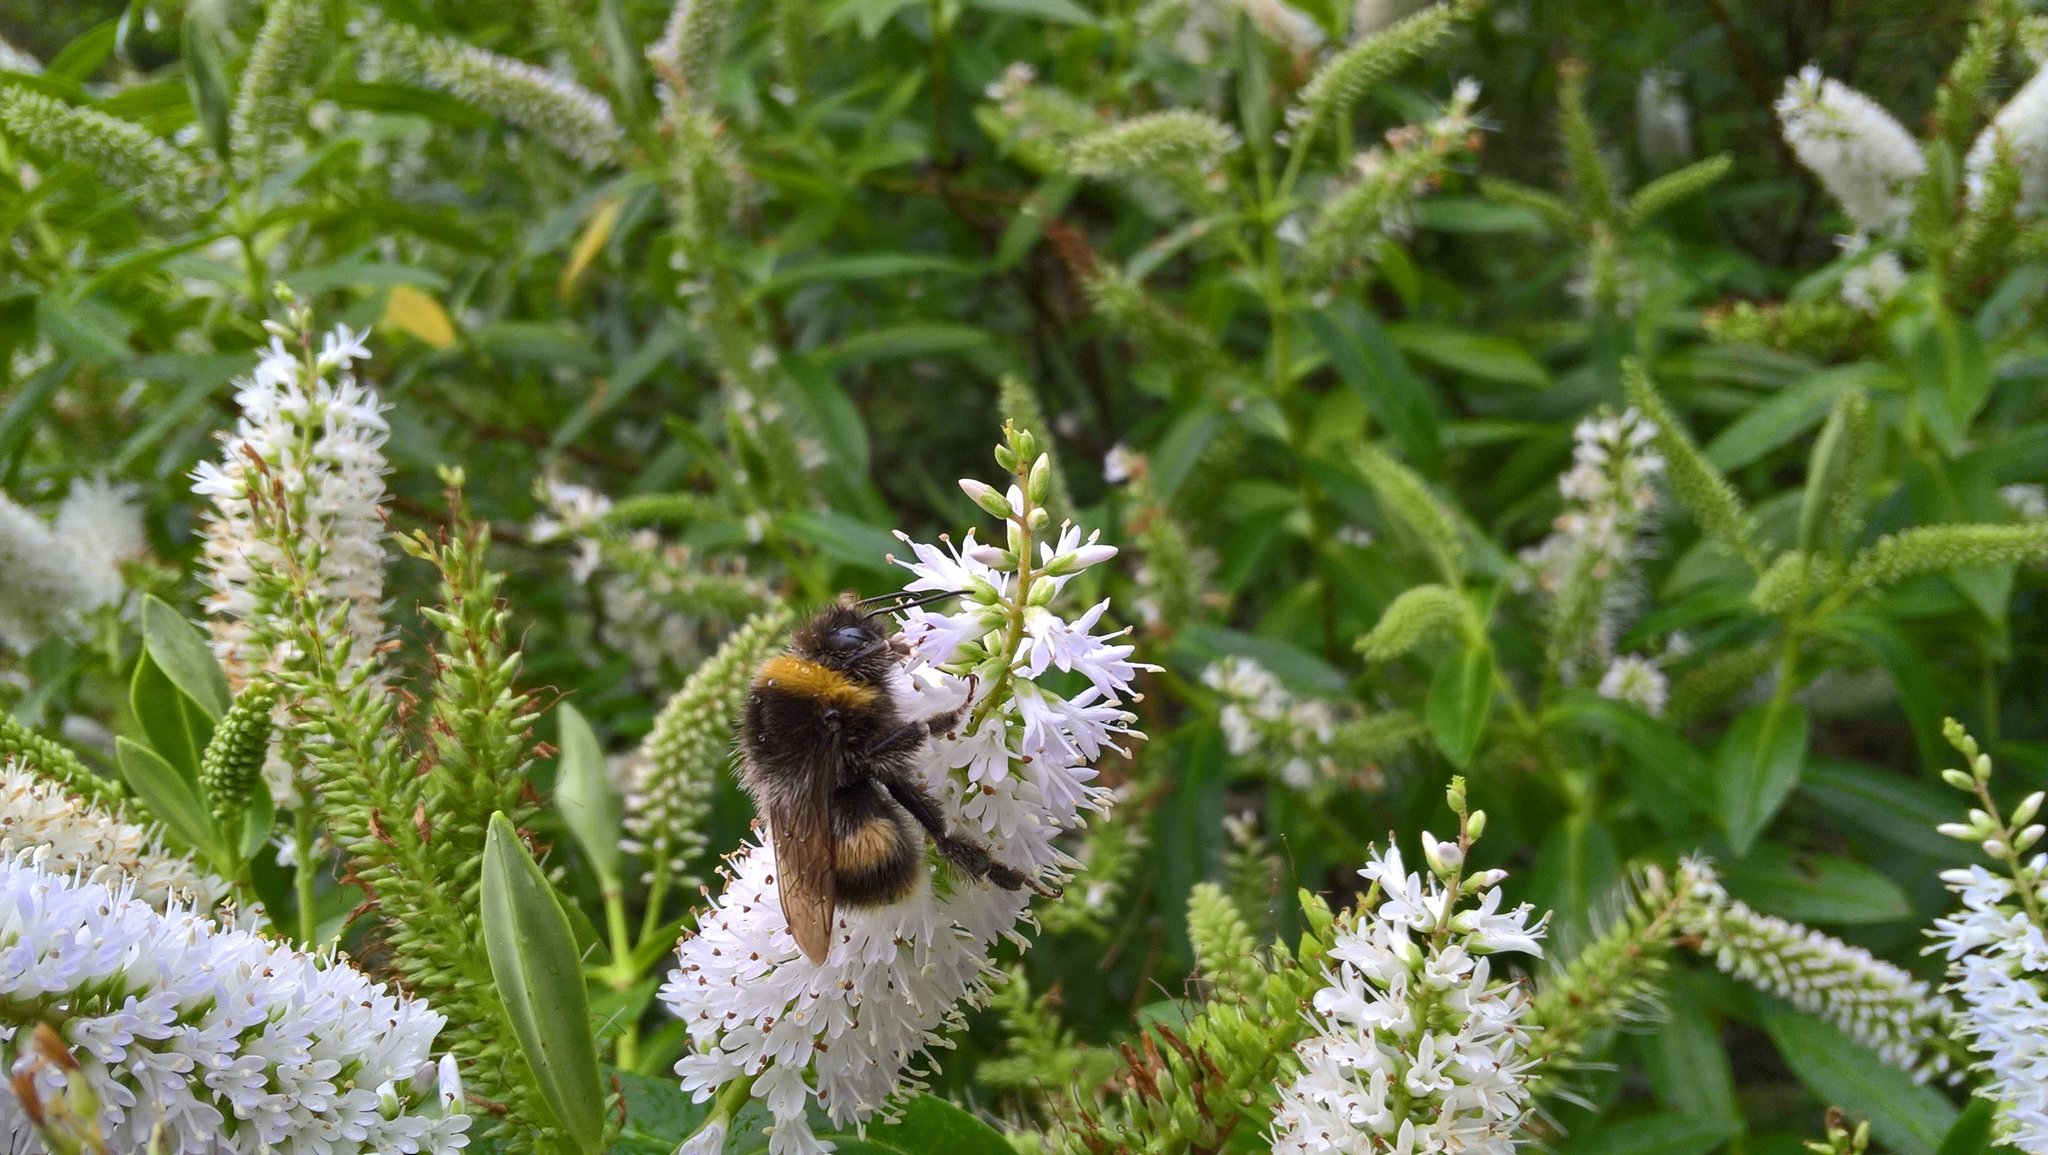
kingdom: Animalia
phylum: Arthropoda
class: Insecta
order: Hymenoptera
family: Apidae
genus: Bombus
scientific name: Bombus terrestris
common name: Buff-tailed bumblebee
